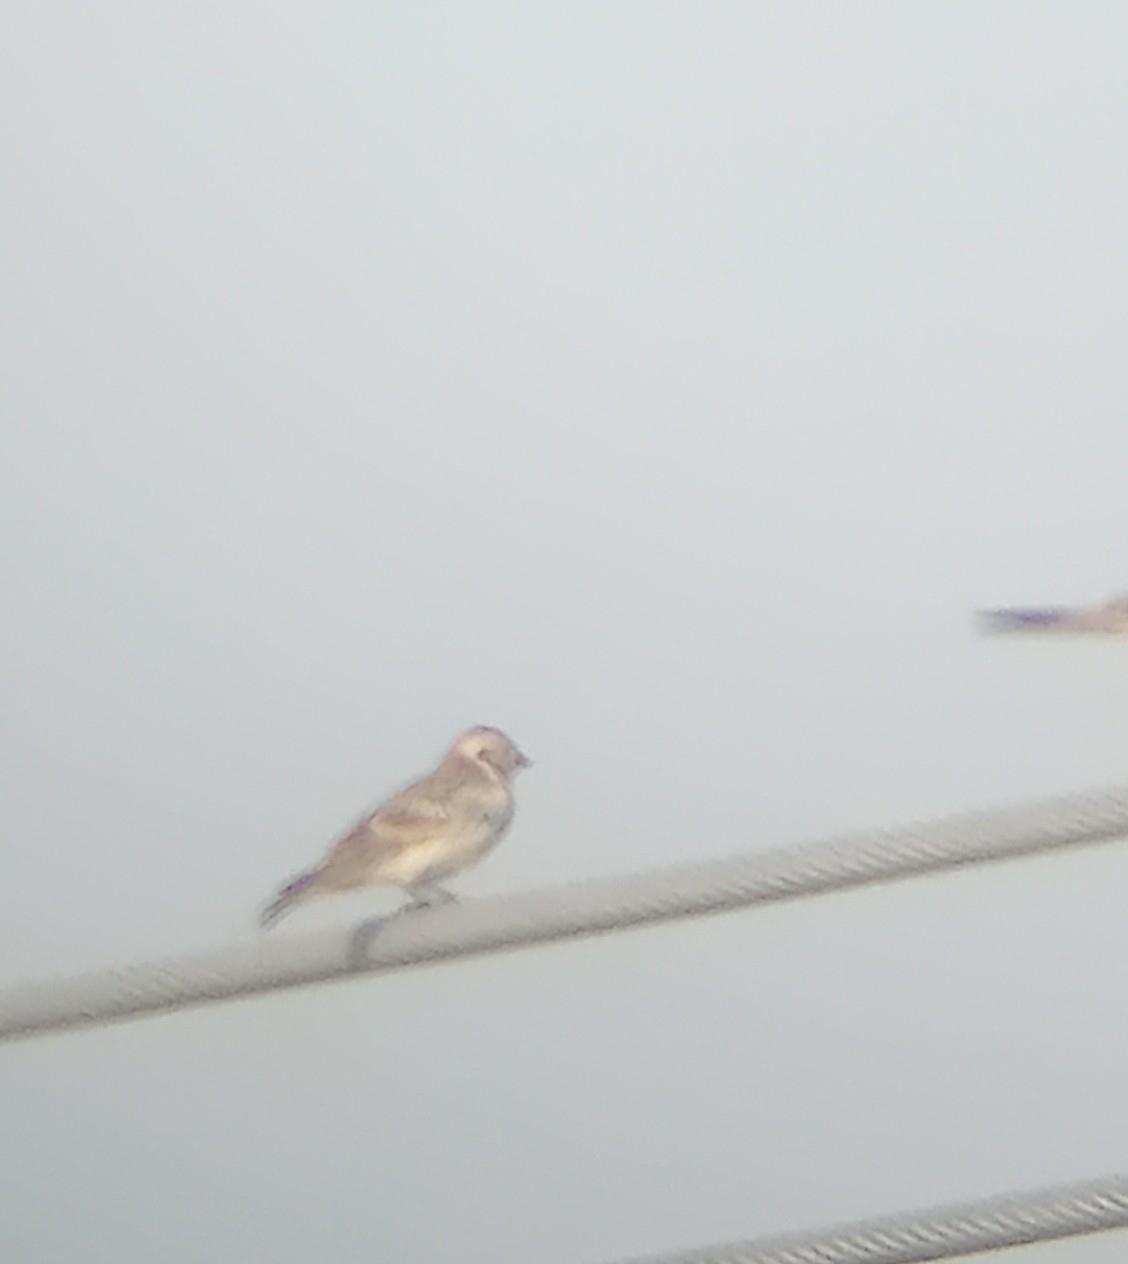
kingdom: Animalia
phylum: Chordata
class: Aves
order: Passeriformes
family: Calcariidae
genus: Calcarius
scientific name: Calcarius lapponicus
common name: Lapland longspur
